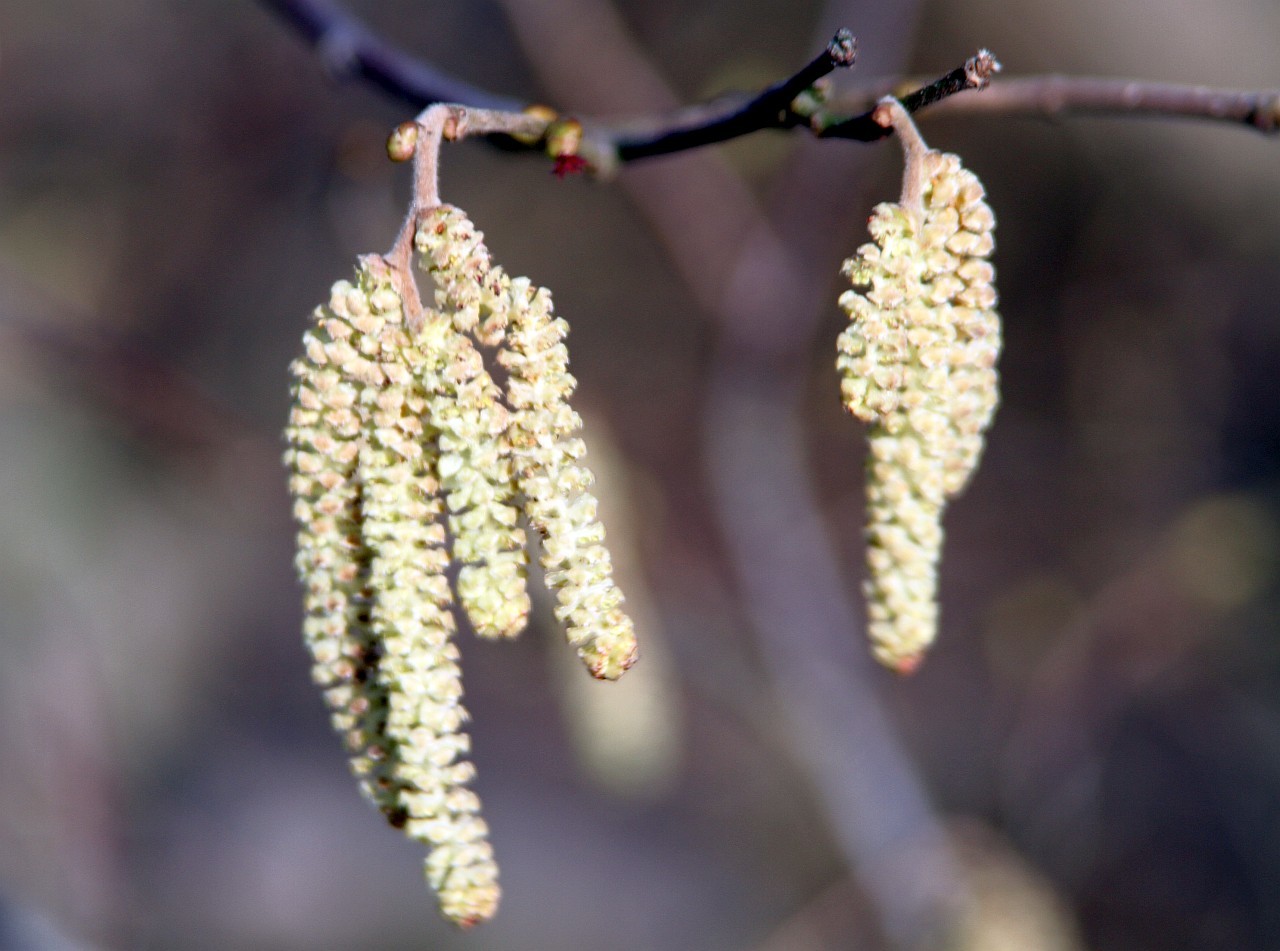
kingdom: Plantae
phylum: Tracheophyta
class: Magnoliopsida
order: Fagales
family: Betulaceae
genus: Corylus
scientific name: Corylus avellana
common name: European hazel
